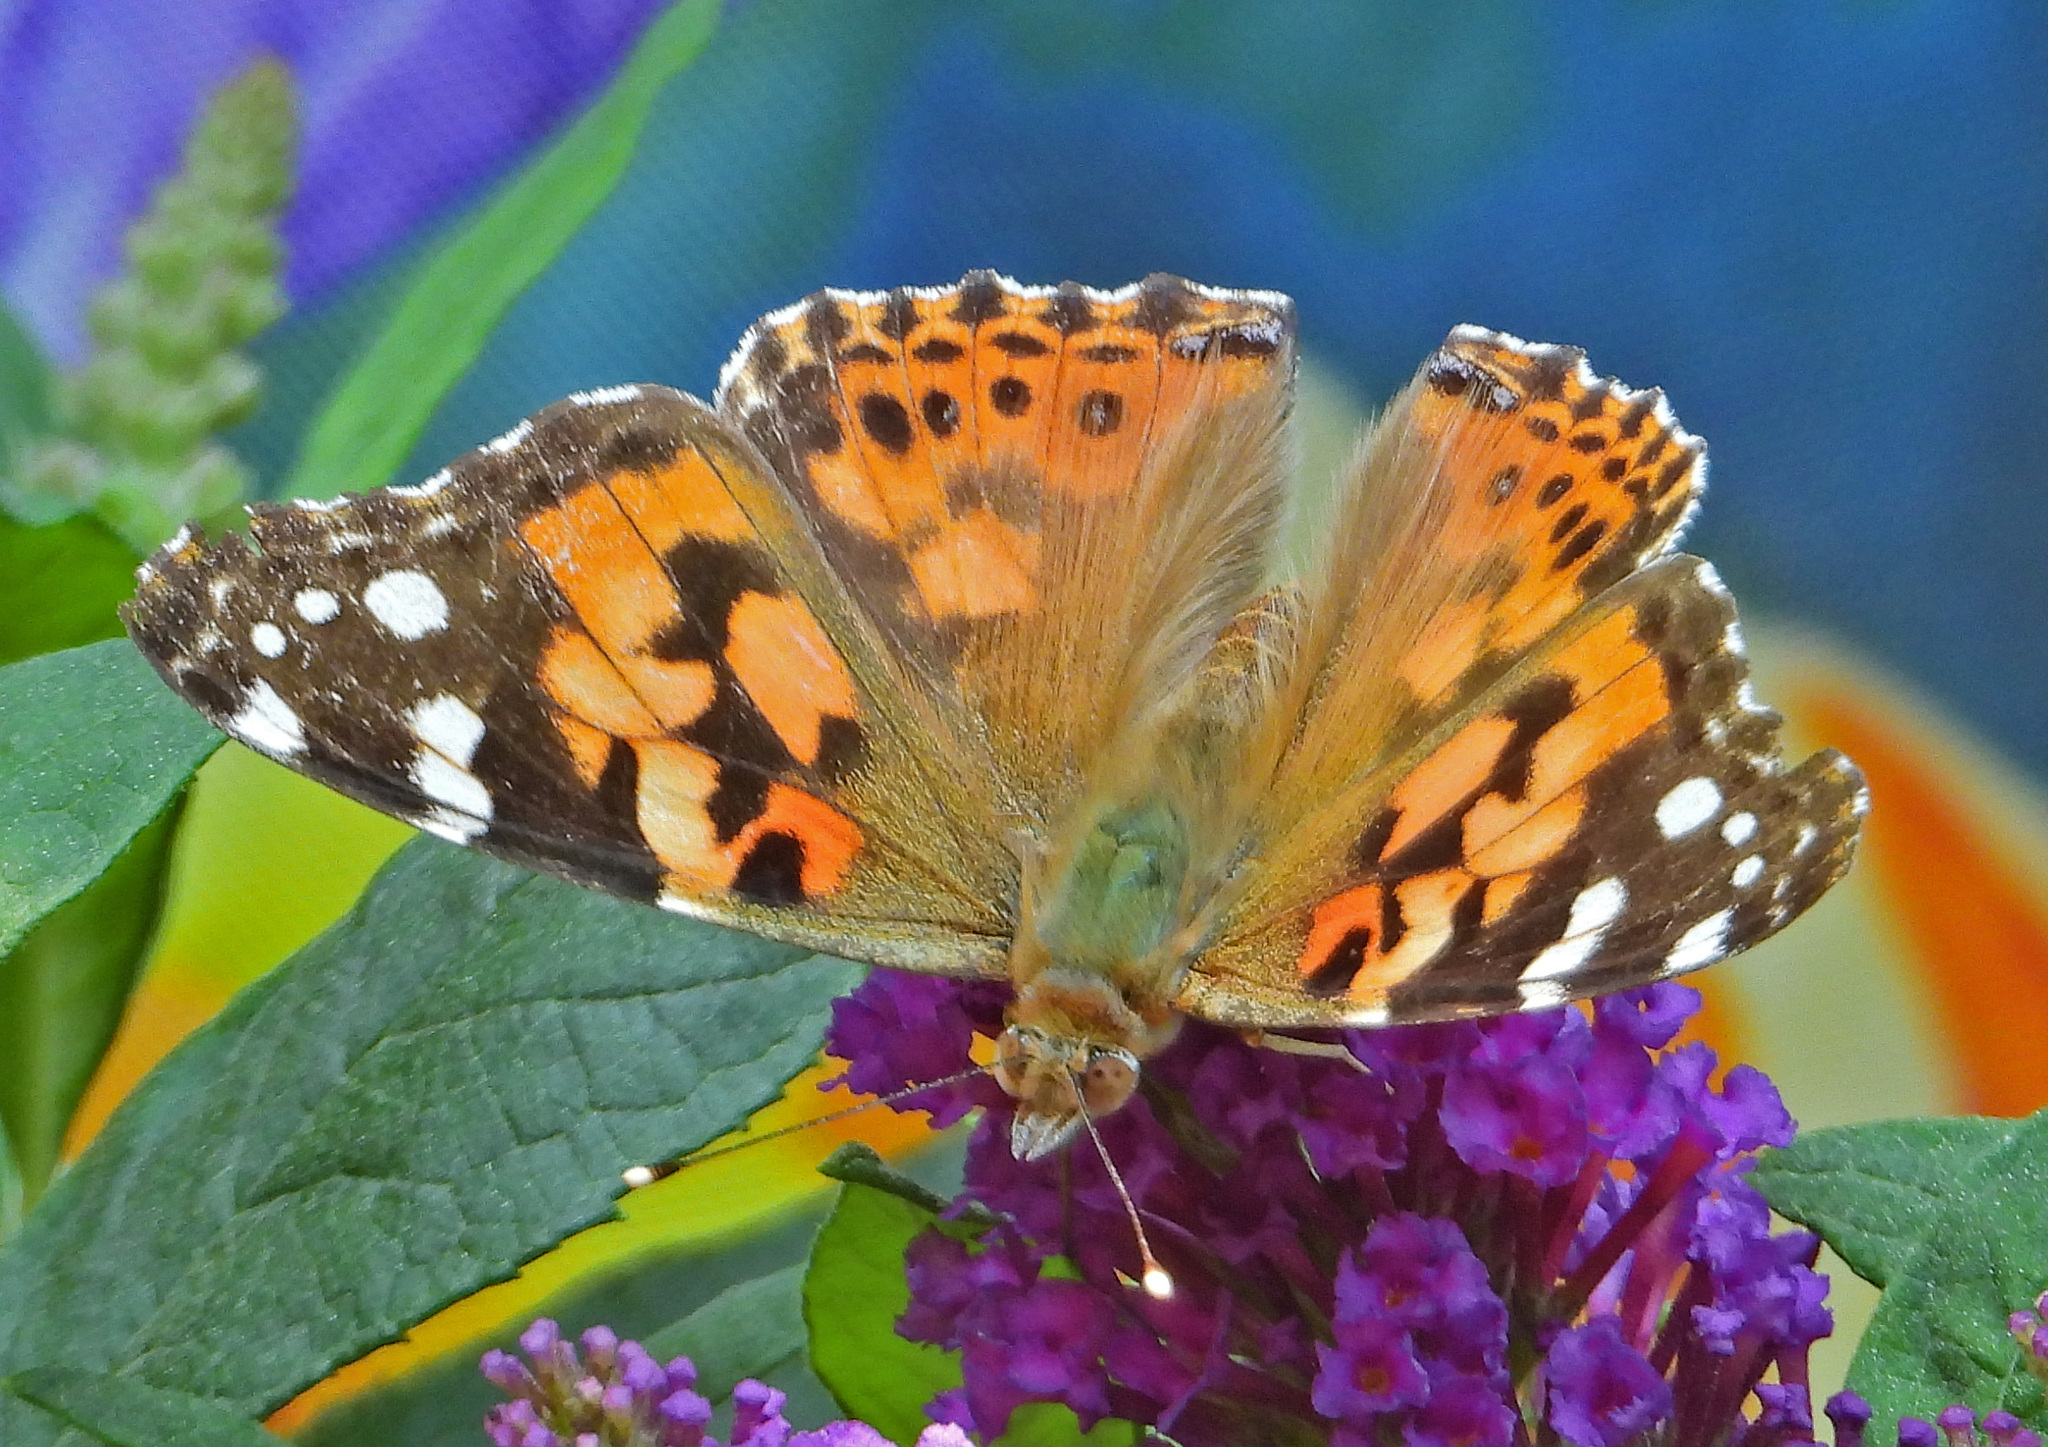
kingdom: Animalia
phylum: Arthropoda
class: Insecta
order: Lepidoptera
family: Nymphalidae
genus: Vanessa
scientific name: Vanessa cardui
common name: Painted lady
